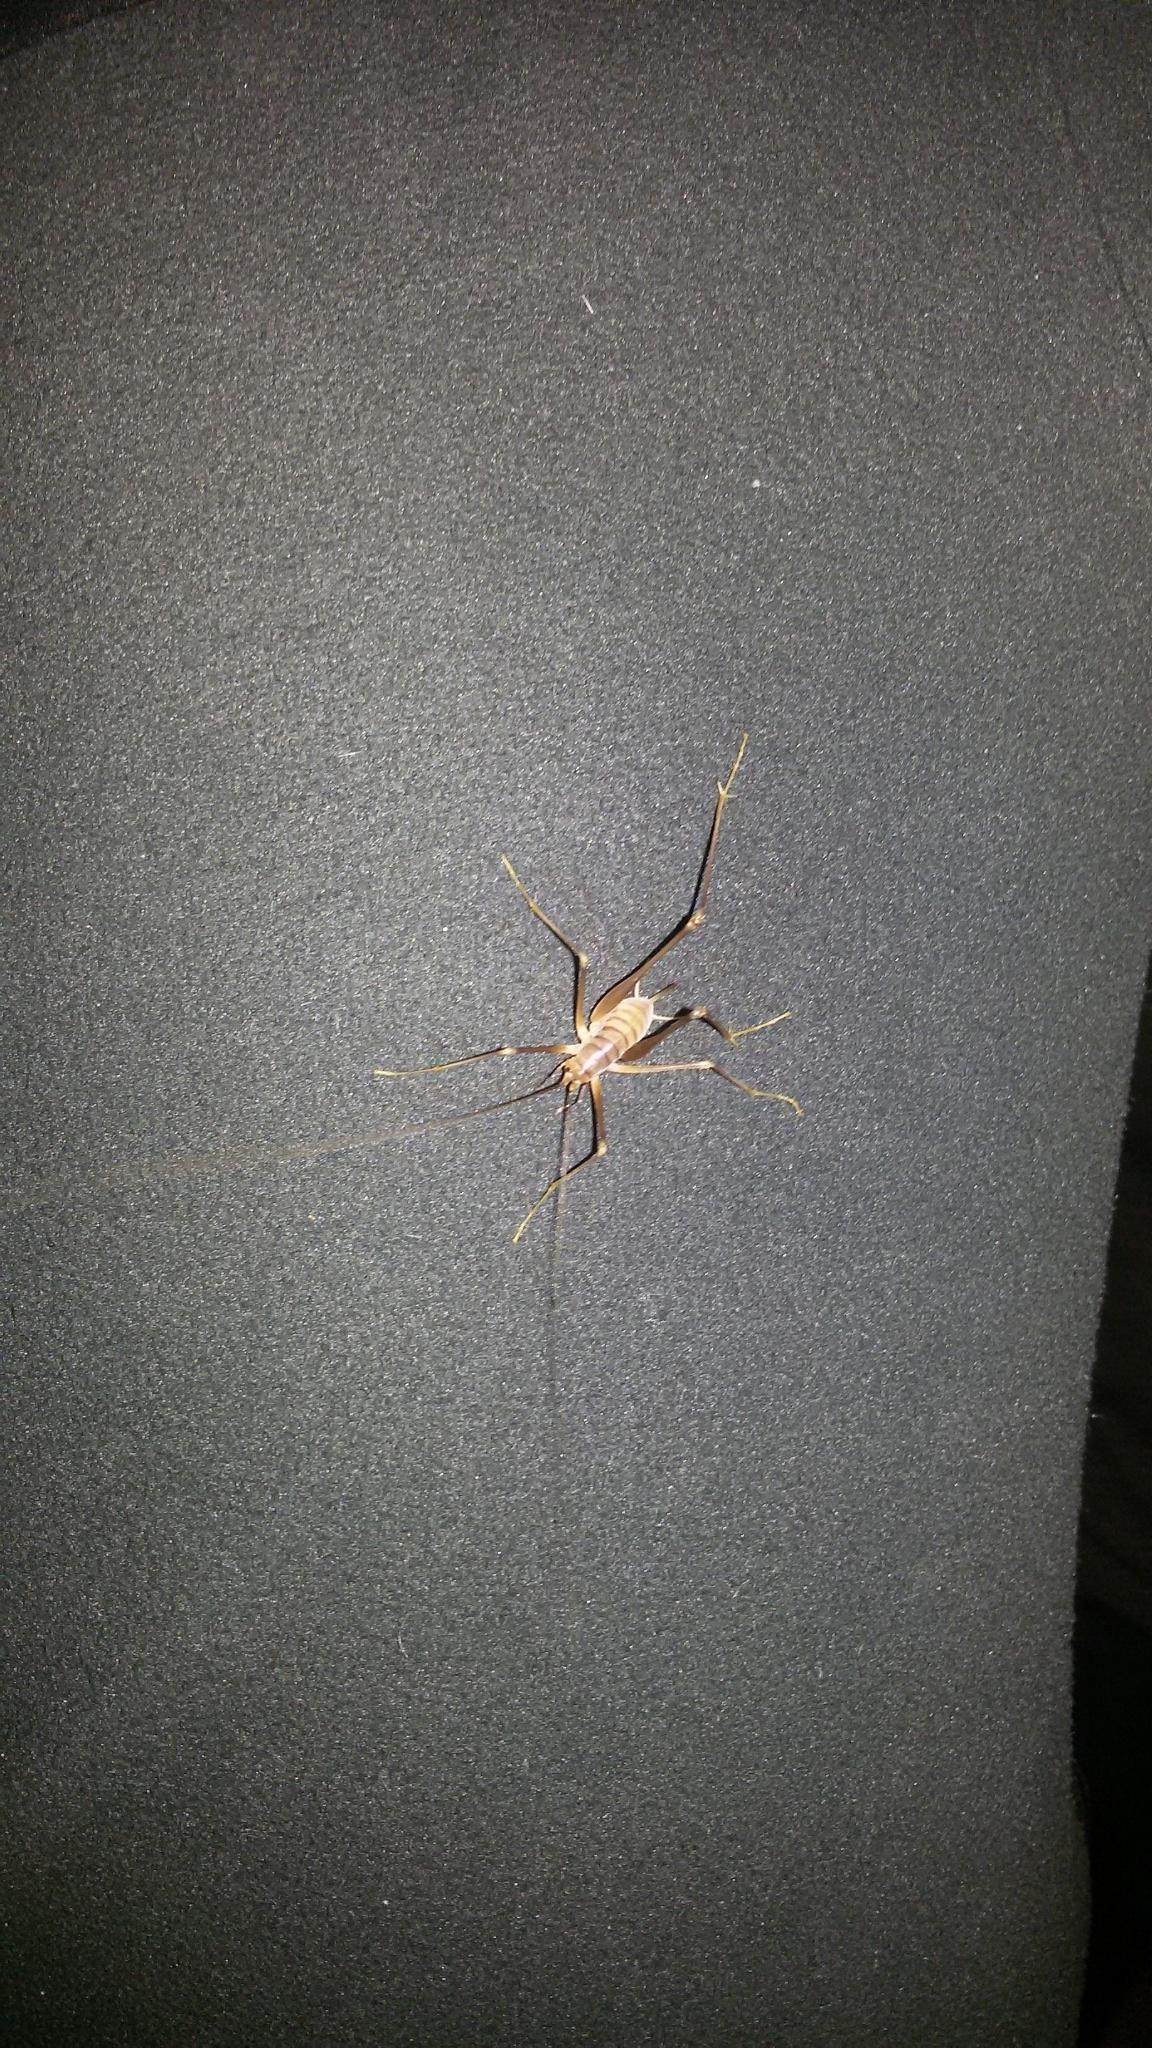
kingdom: Animalia
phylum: Arthropoda
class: Insecta
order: Orthoptera
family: Rhaphidophoridae
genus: Dolichopoda
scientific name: Dolichopoda laetitiae
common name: Laetitia's cave cricket
